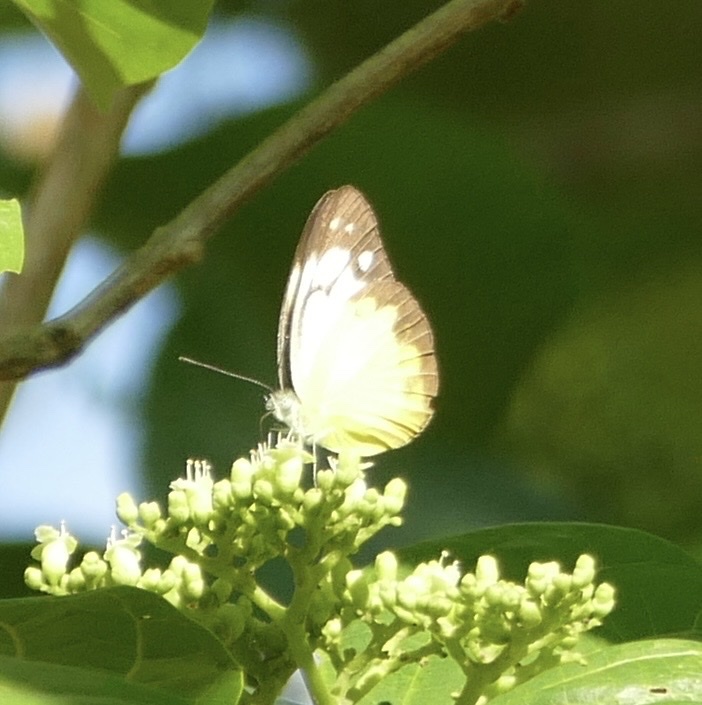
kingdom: Animalia
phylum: Arthropoda
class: Insecta
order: Lepidoptera
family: Pieridae
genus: Cepora
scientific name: Cepora aspasia
